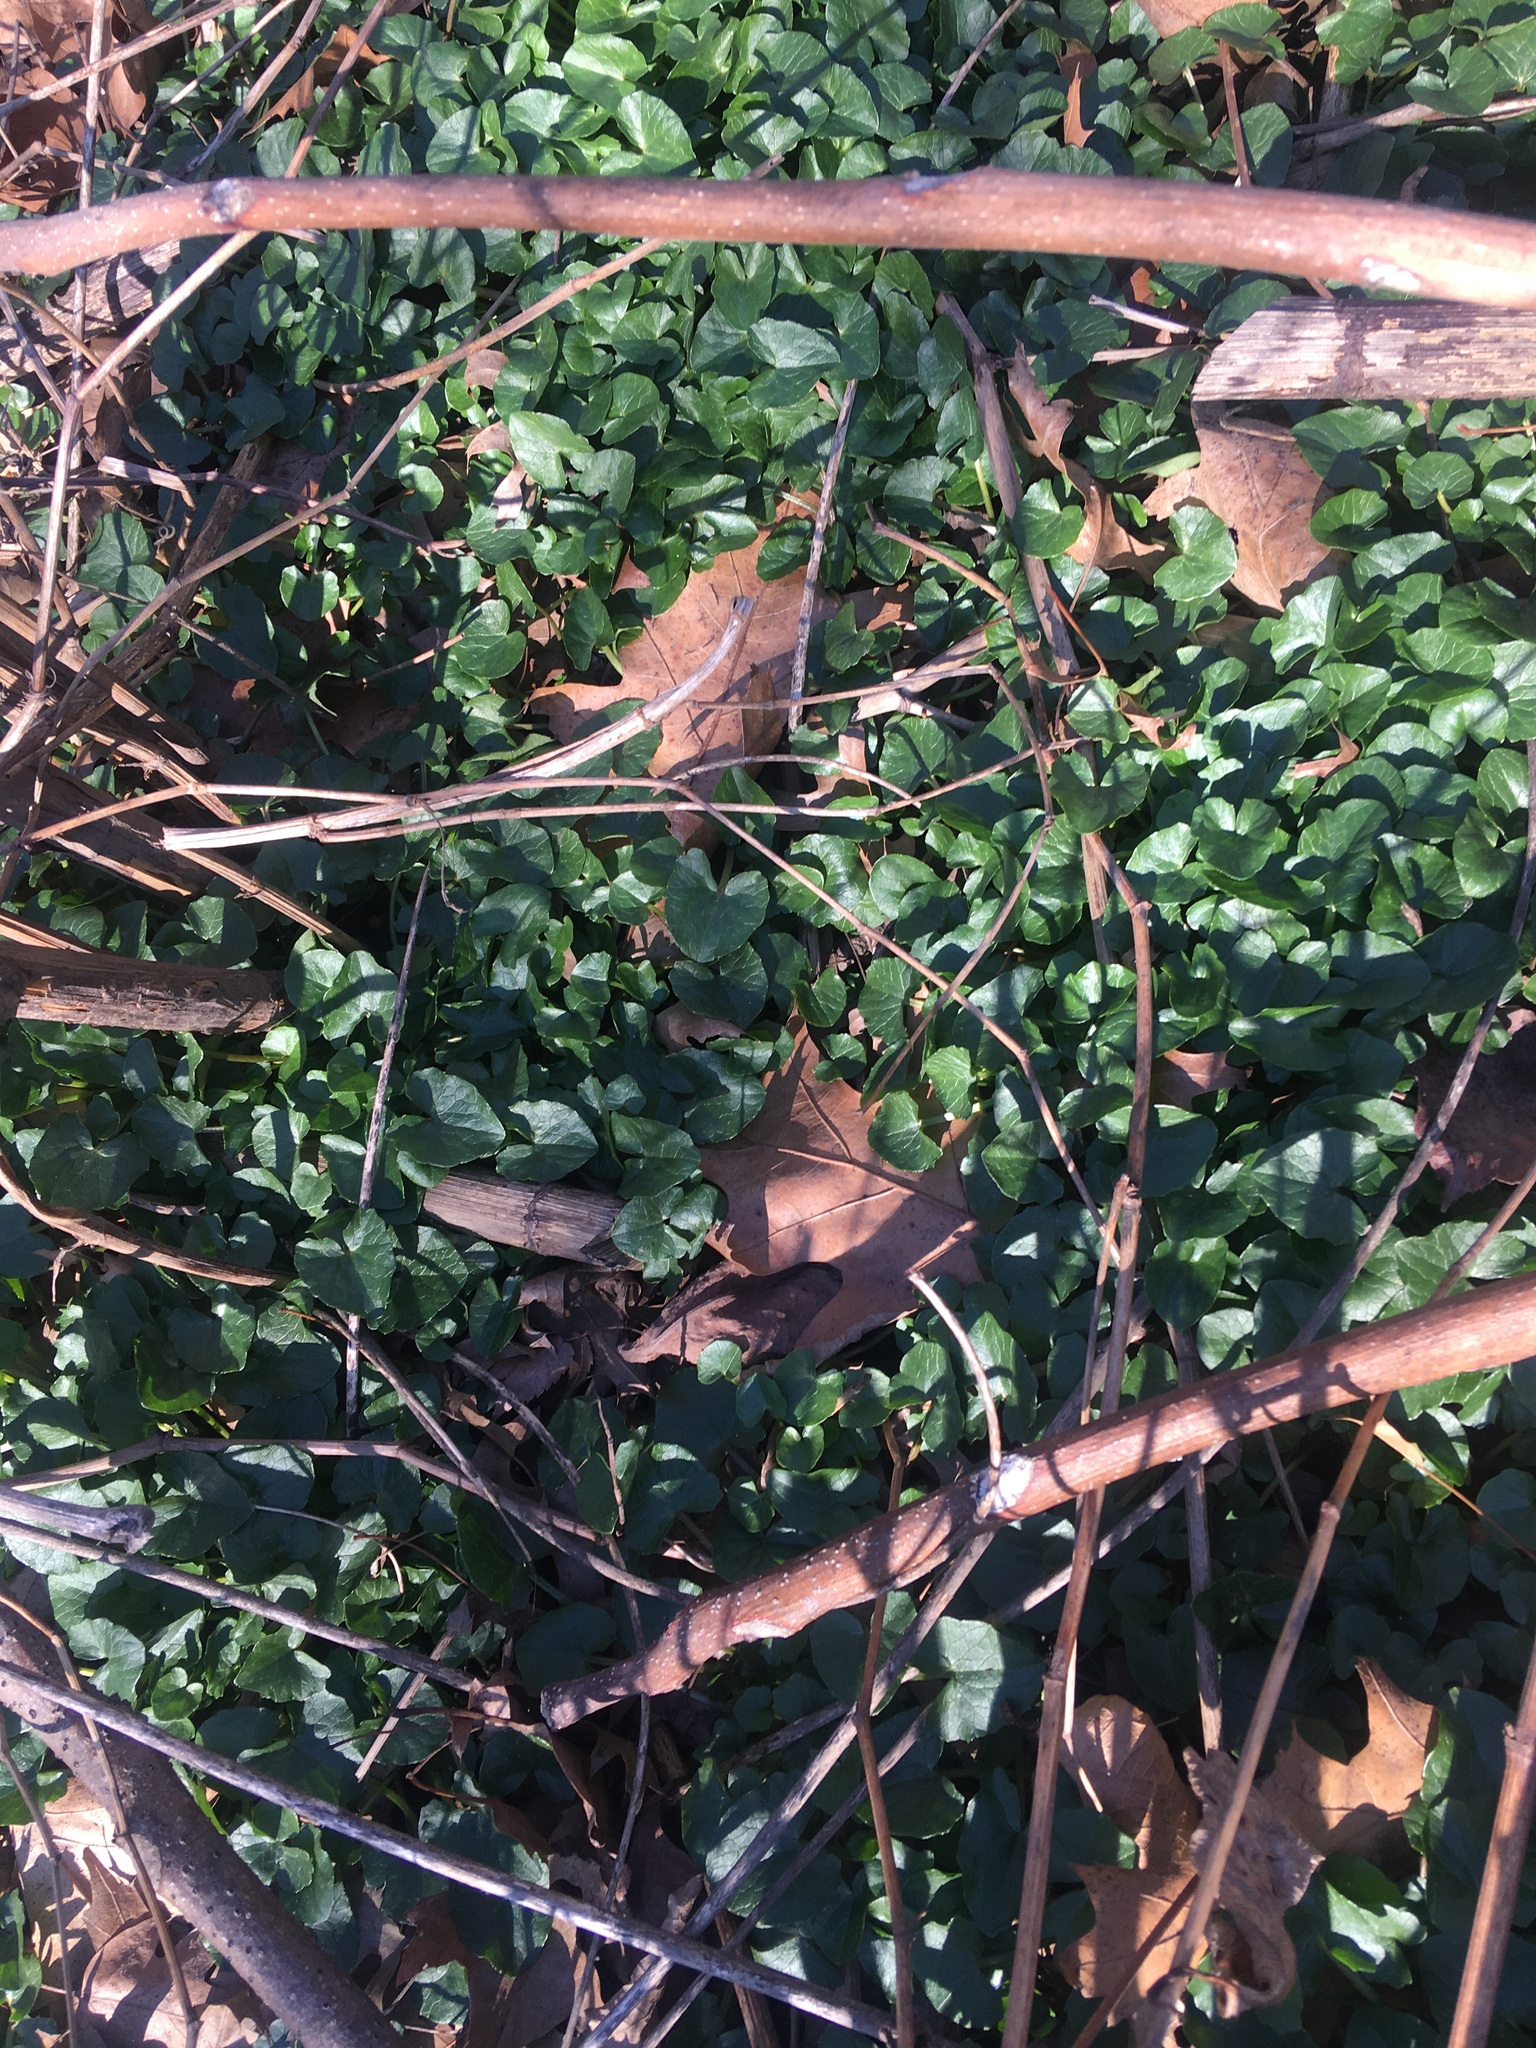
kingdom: Plantae
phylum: Tracheophyta
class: Magnoliopsida
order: Ranunculales
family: Ranunculaceae
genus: Ficaria
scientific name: Ficaria verna
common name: Lesser celandine
